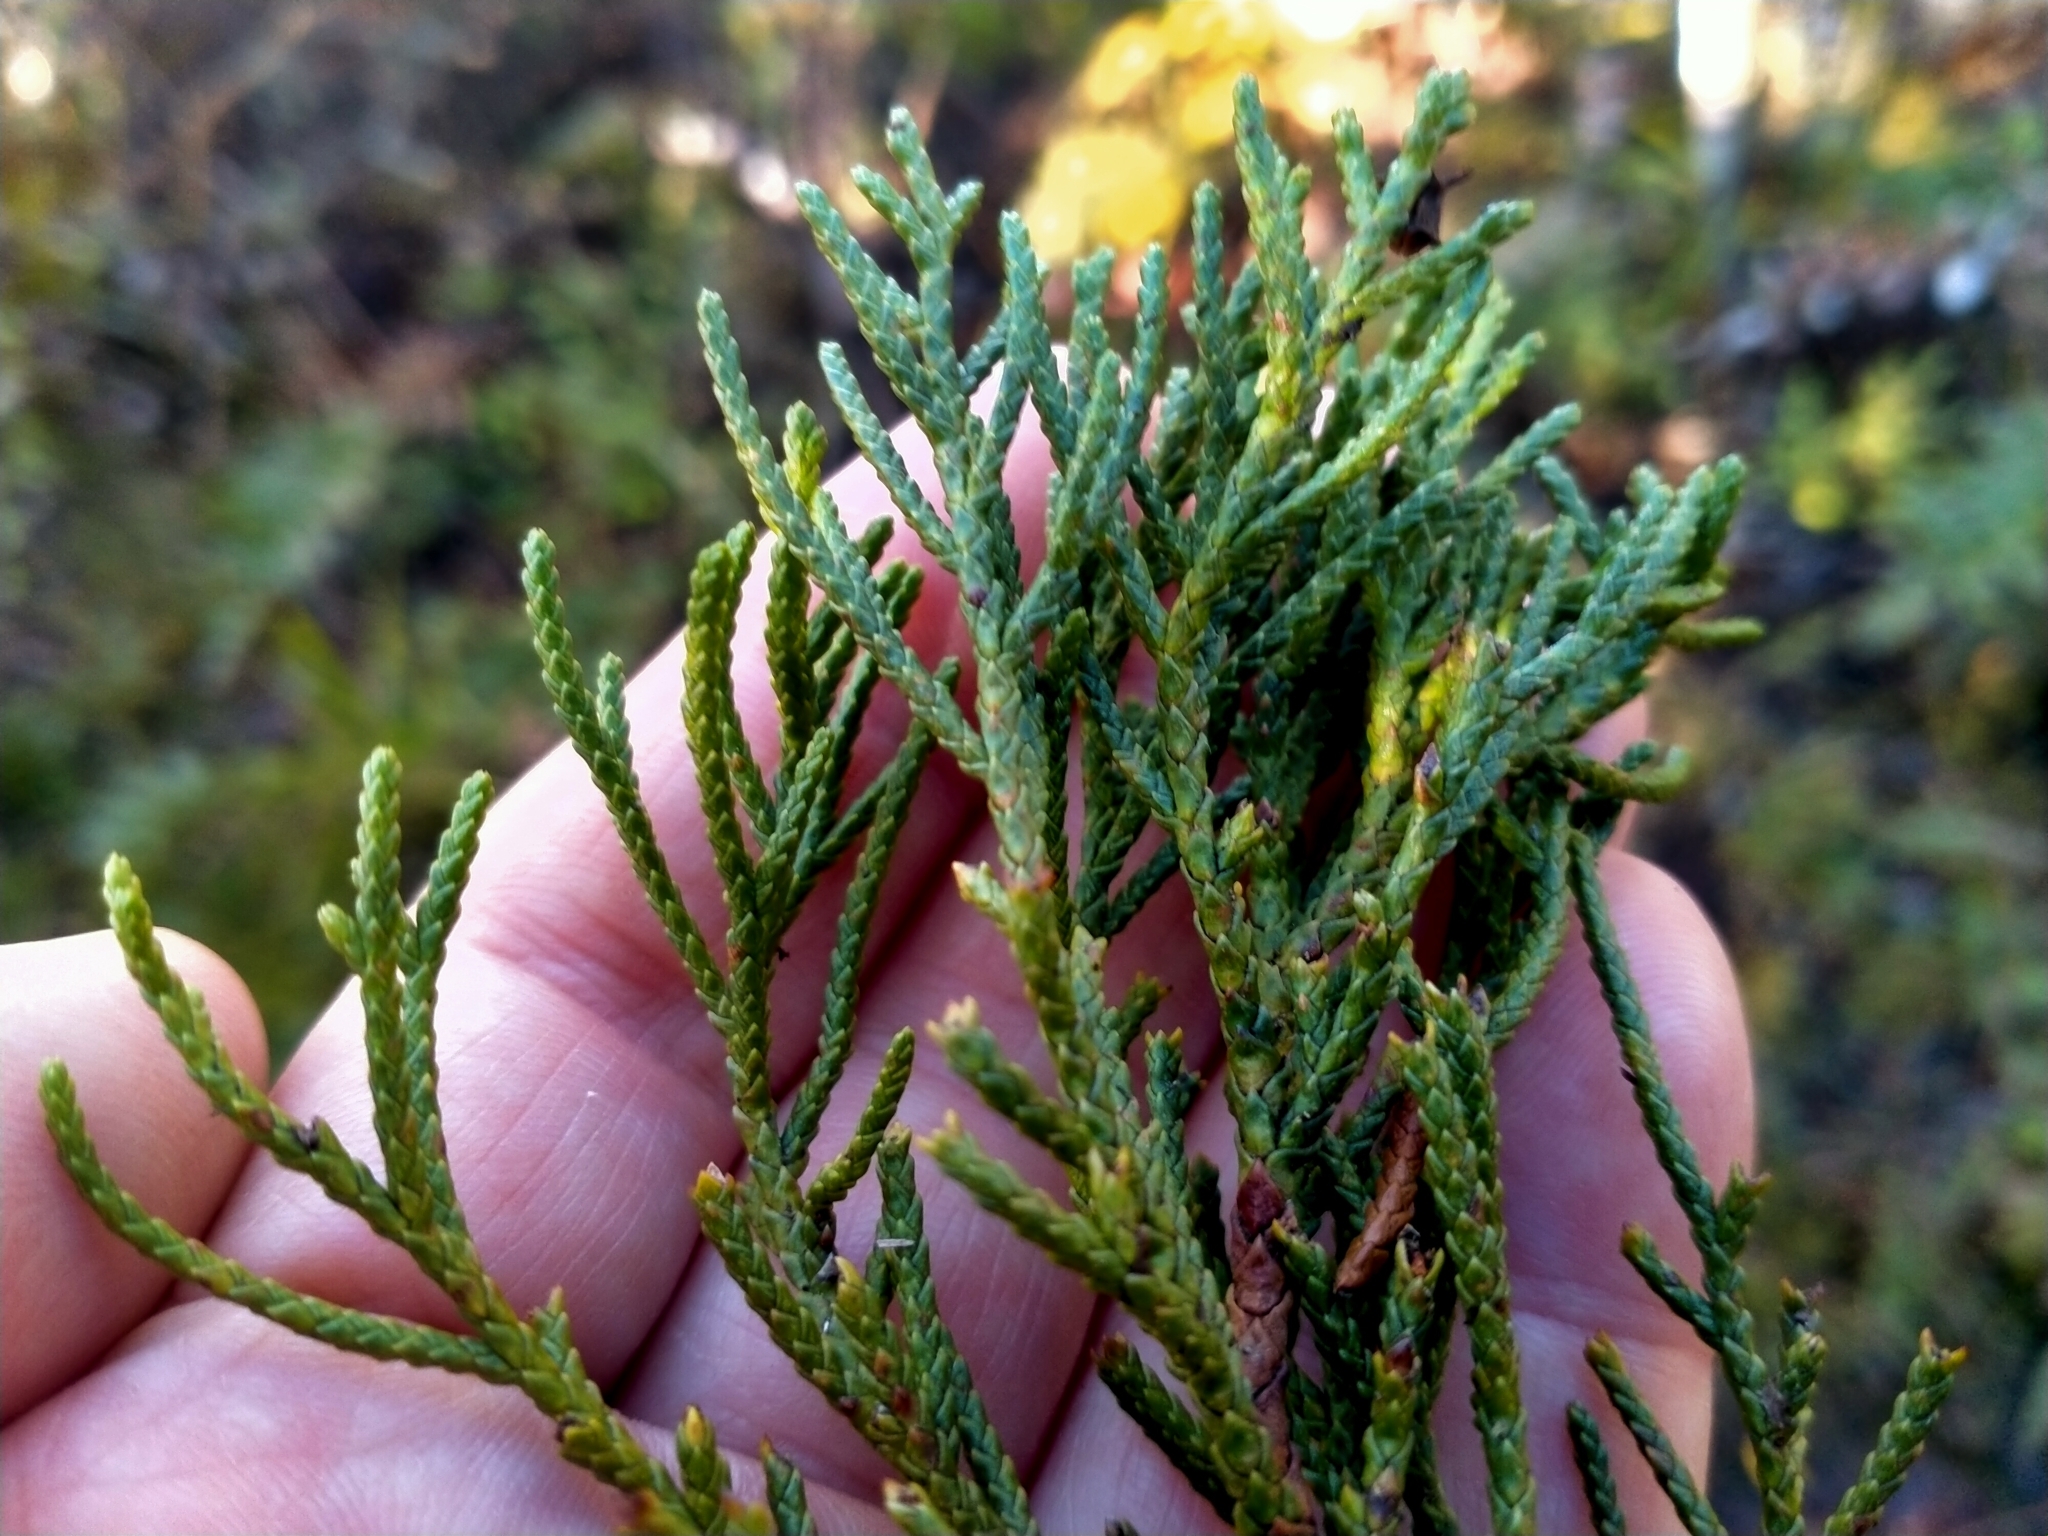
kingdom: Plantae
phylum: Tracheophyta
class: Pinopsida
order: Pinales
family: Cupressaceae
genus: Libocedrus
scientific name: Libocedrus bidwillii
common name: Cedar
